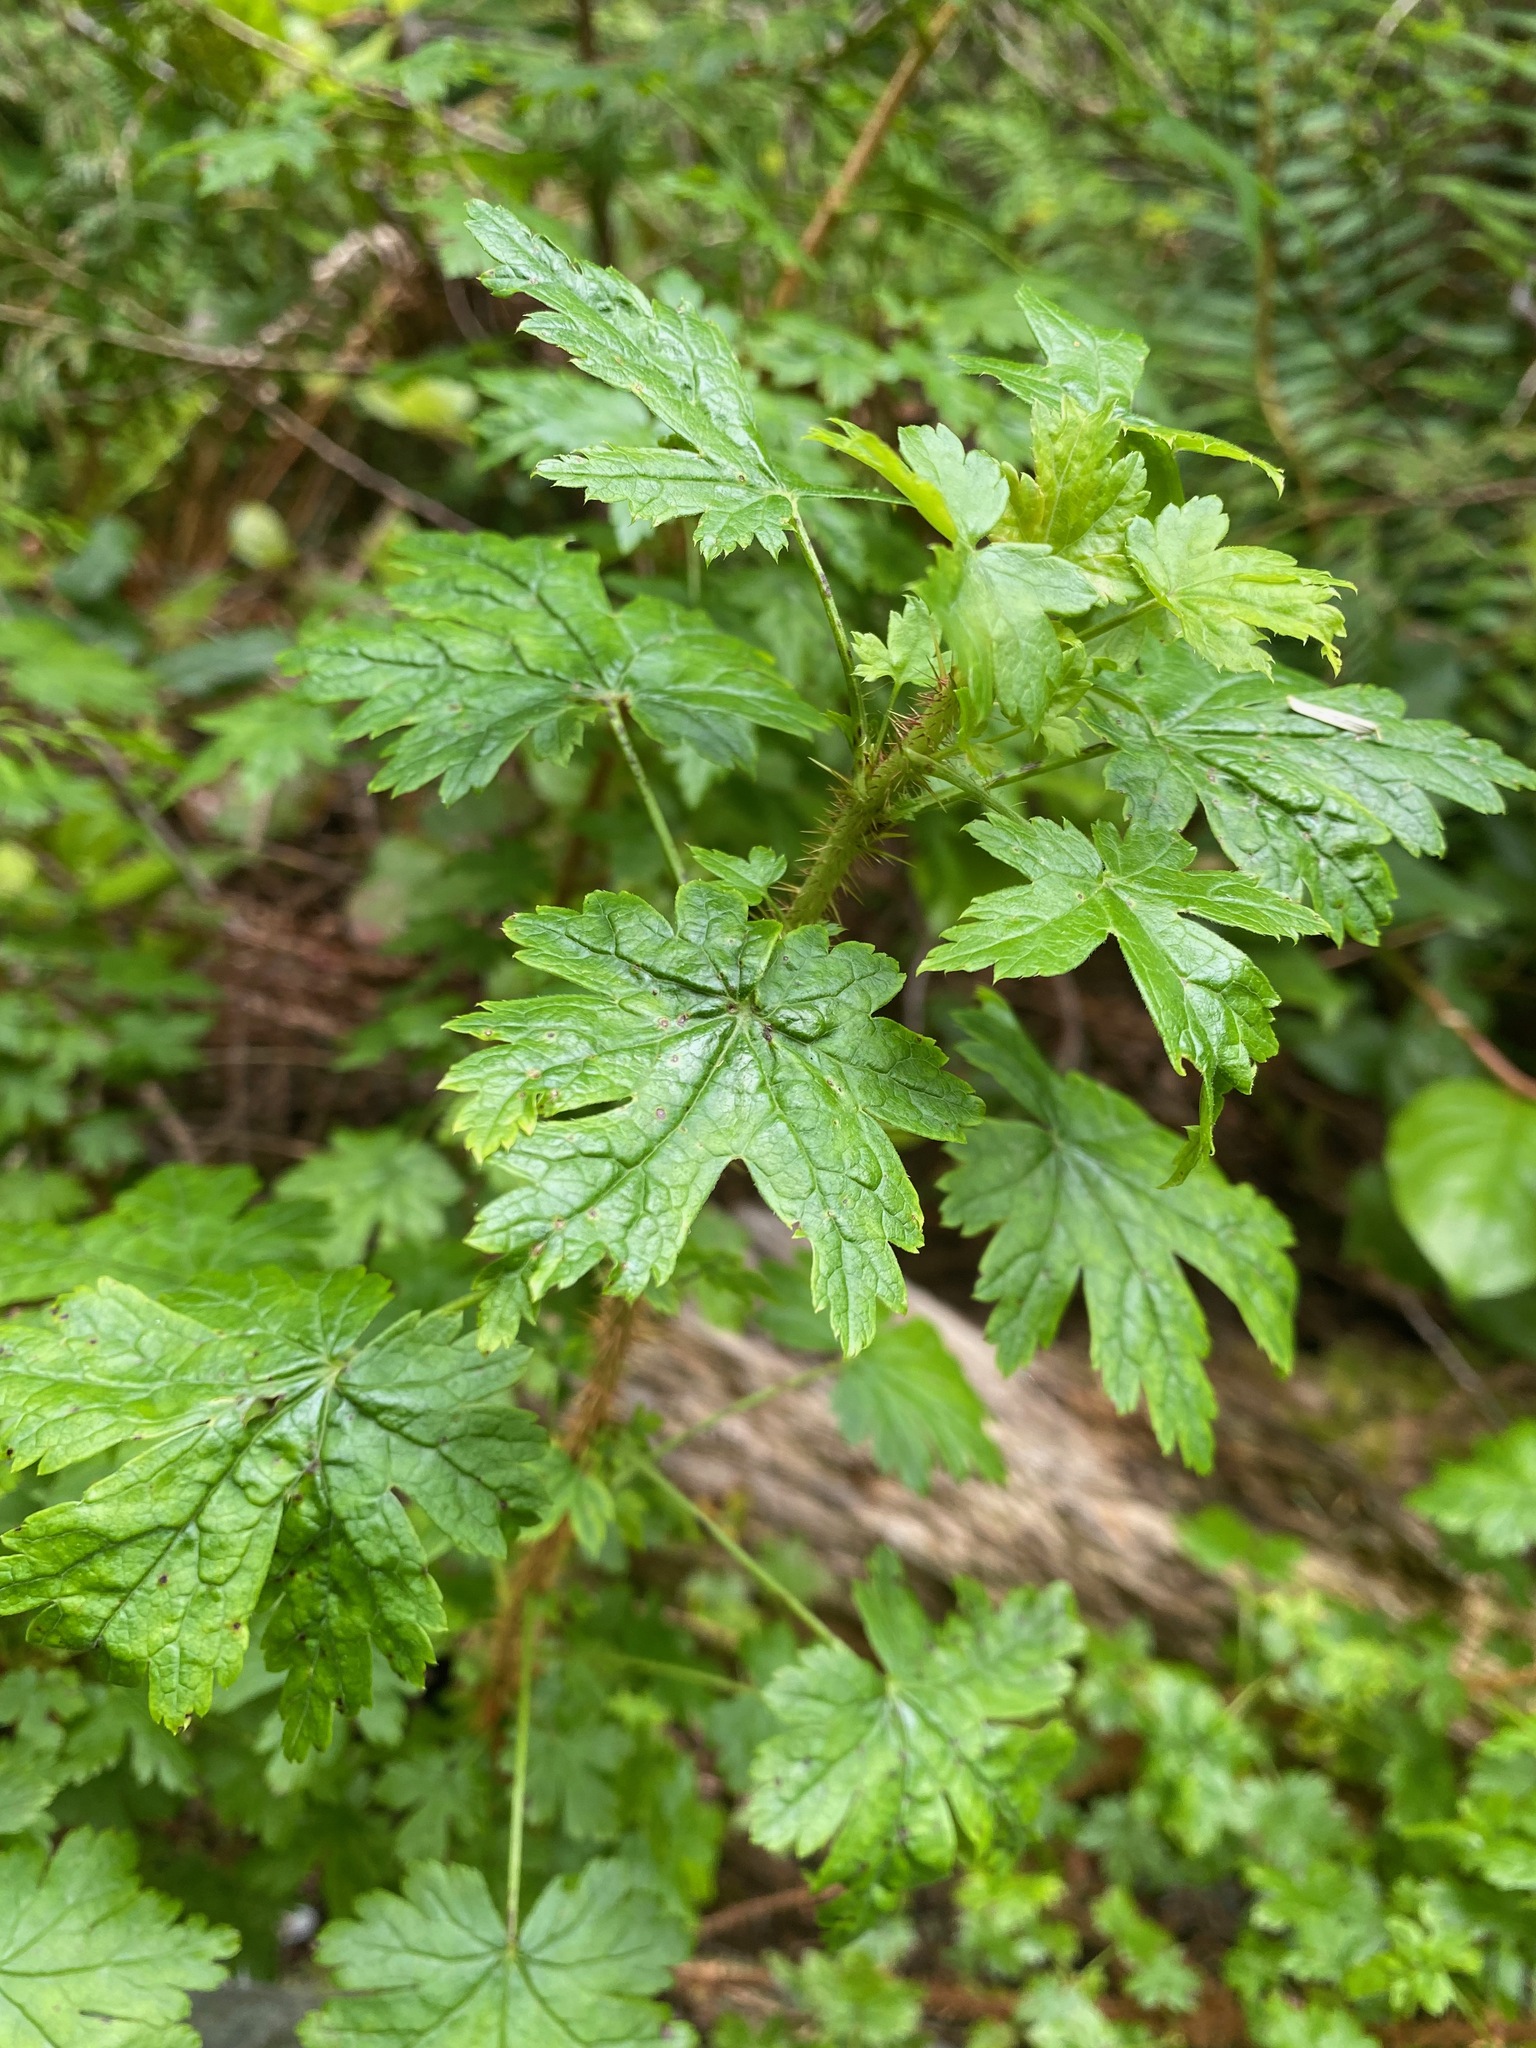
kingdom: Plantae
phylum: Tracheophyta
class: Magnoliopsida
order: Saxifragales
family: Grossulariaceae
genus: Ribes
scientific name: Ribes lacustre
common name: Black gooseberry
